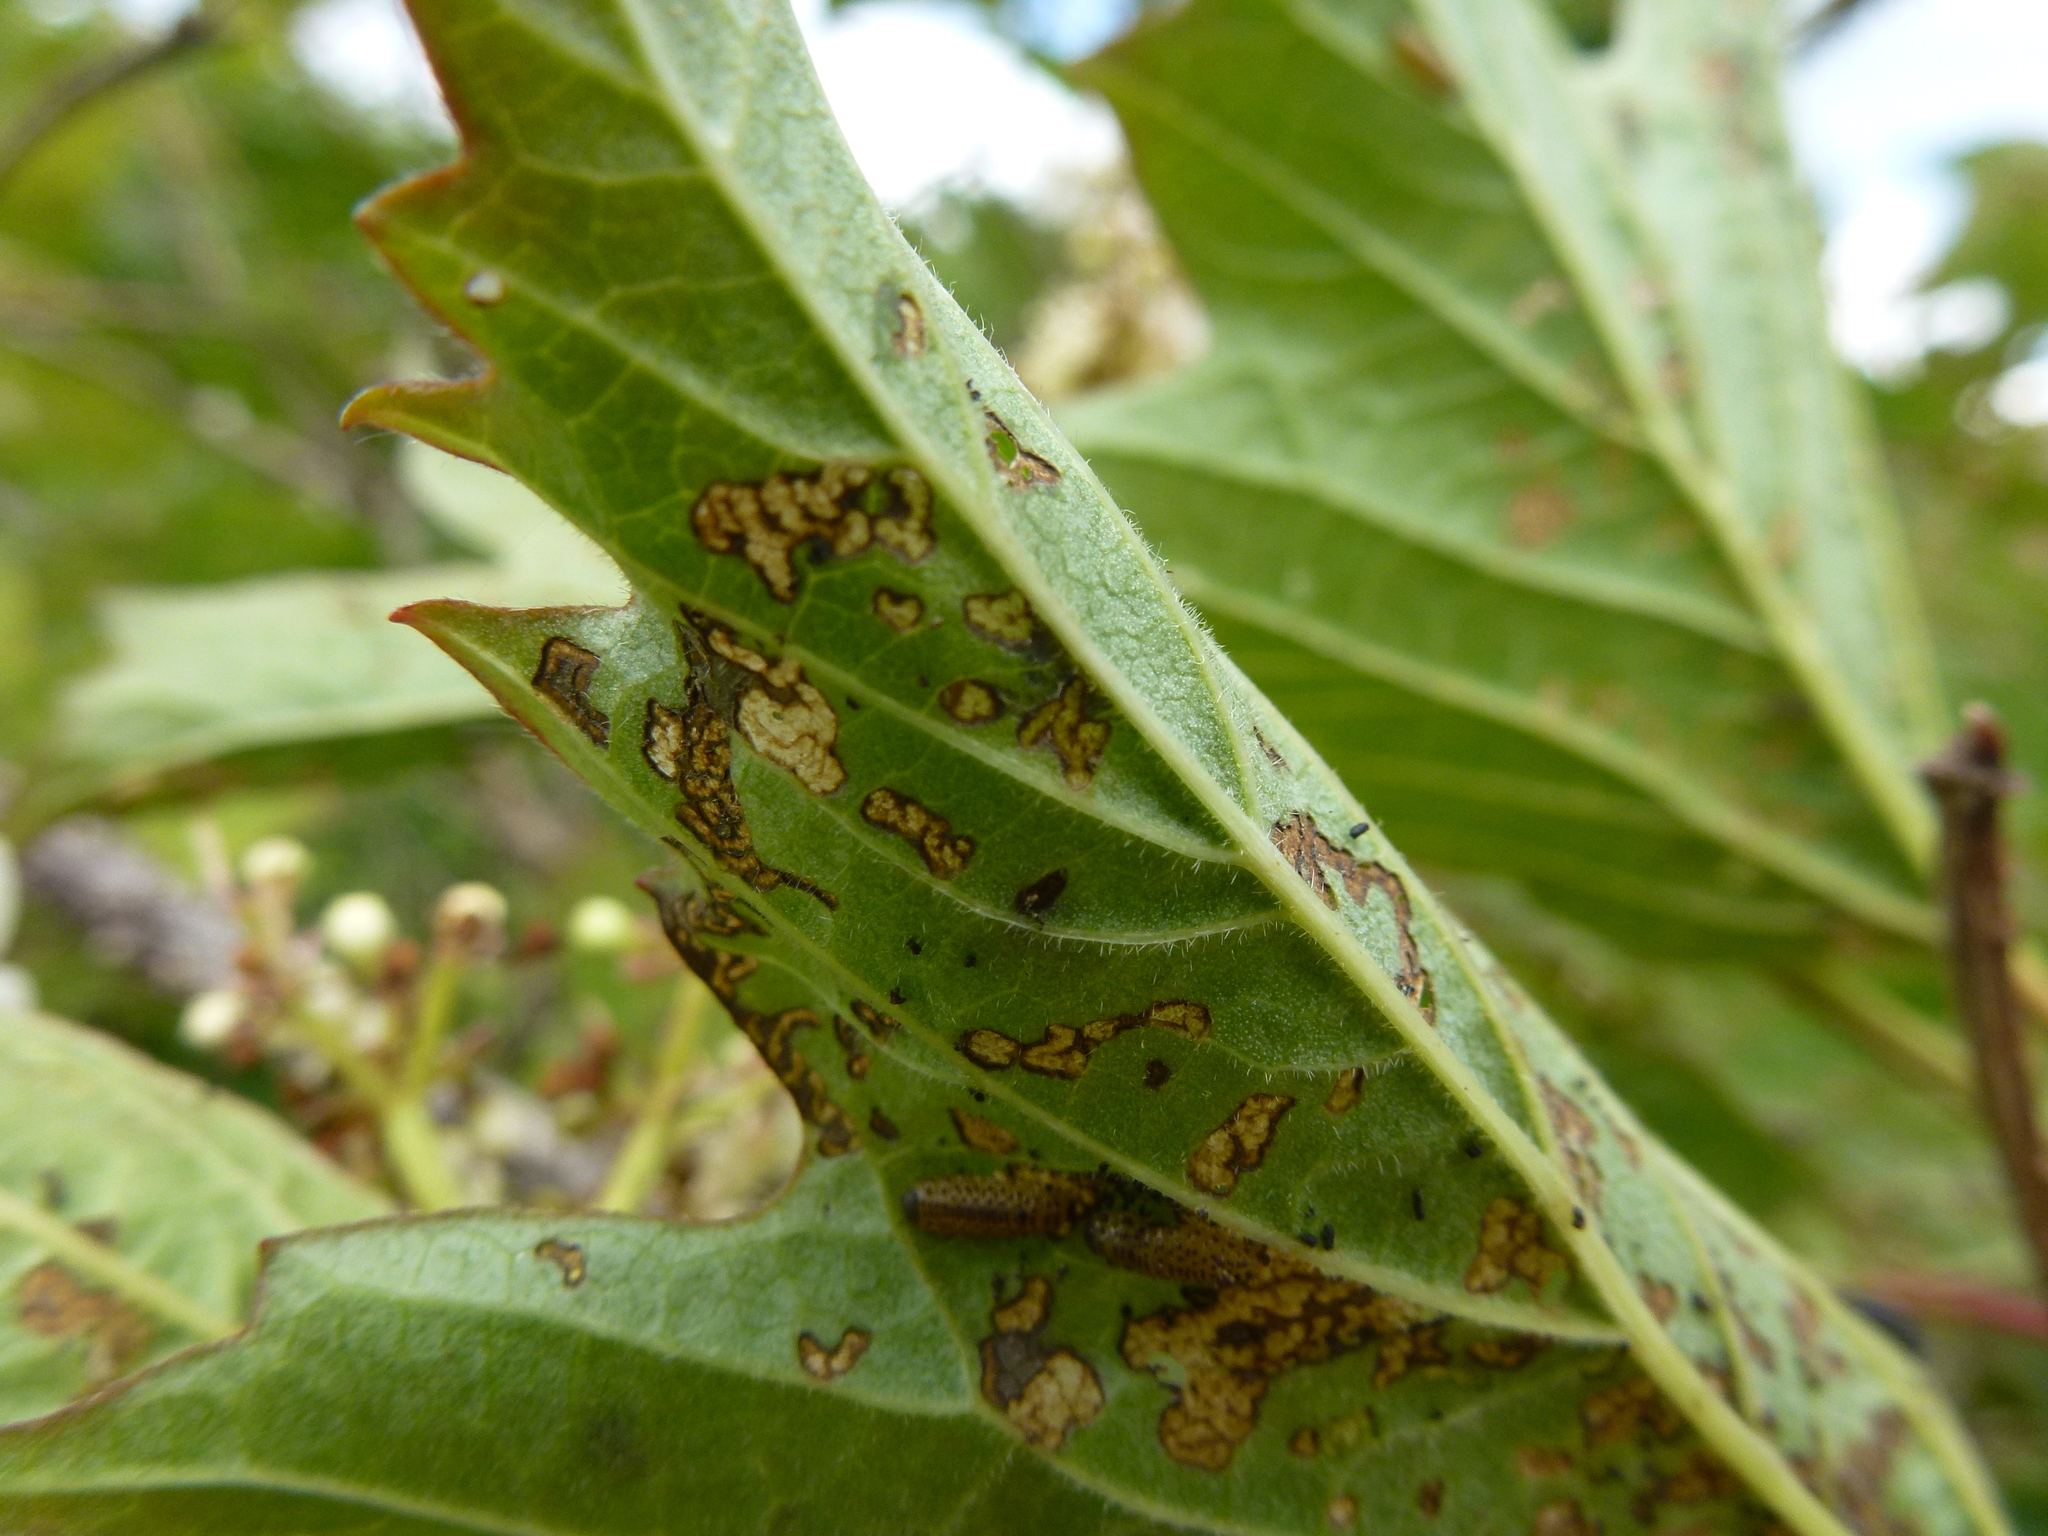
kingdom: Animalia
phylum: Arthropoda
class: Insecta
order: Coleoptera
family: Chrysomelidae
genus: Pyrrhalta
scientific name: Pyrrhalta viburni
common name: Guelder-rose leaf beetle
